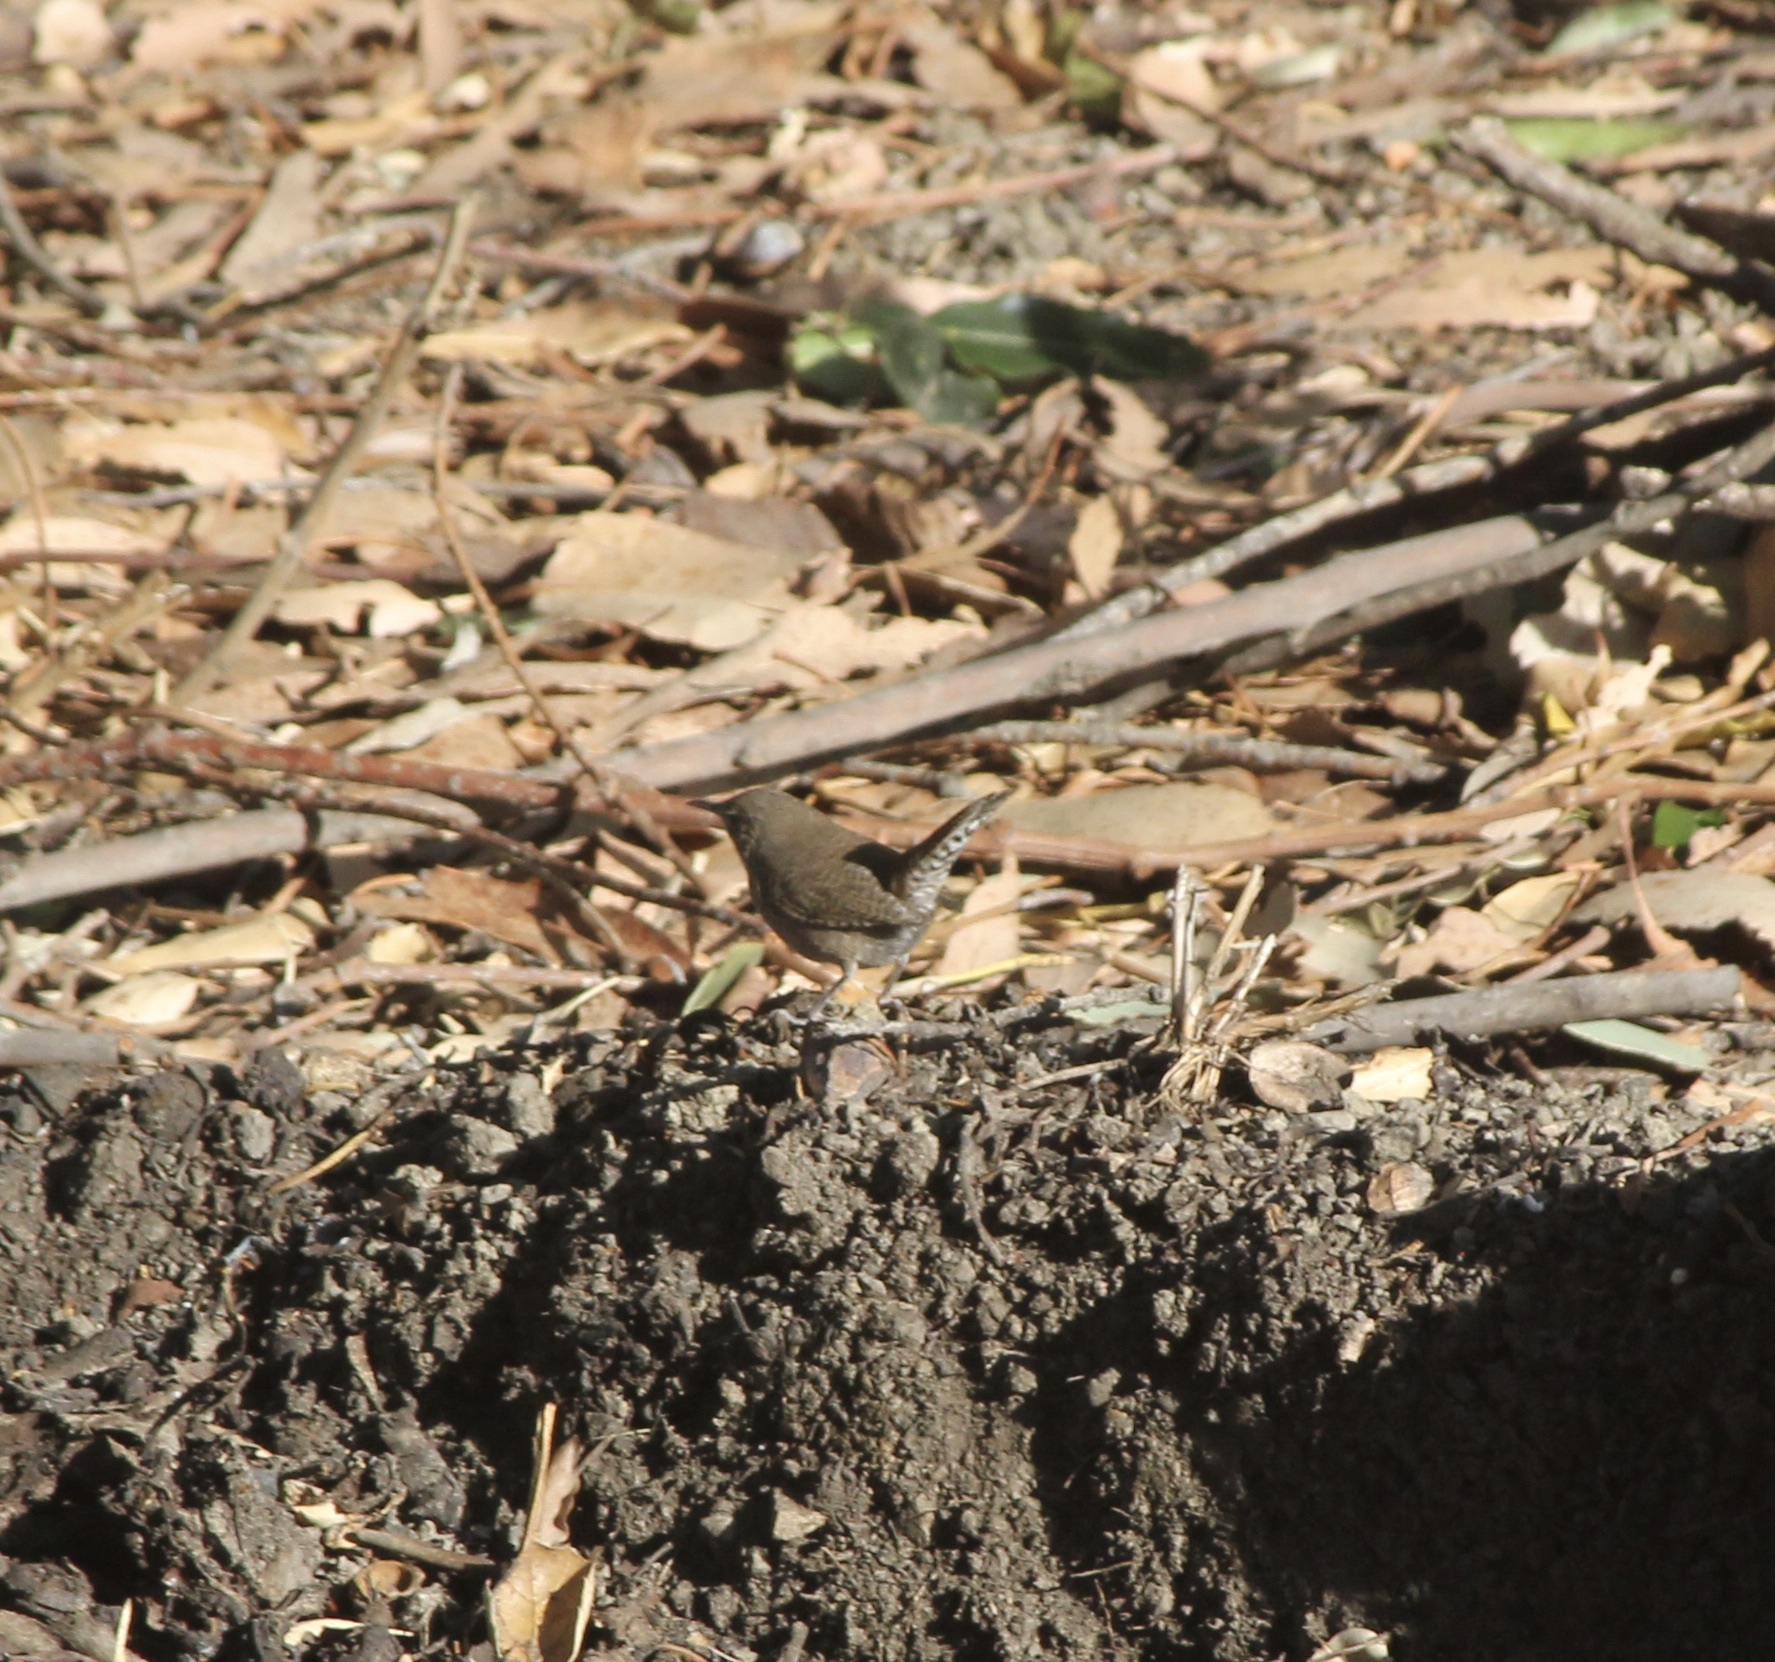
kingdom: Animalia
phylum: Chordata
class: Aves
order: Passeriformes
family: Troglodytidae
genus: Troglodytes
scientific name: Troglodytes aedon
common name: House wren
